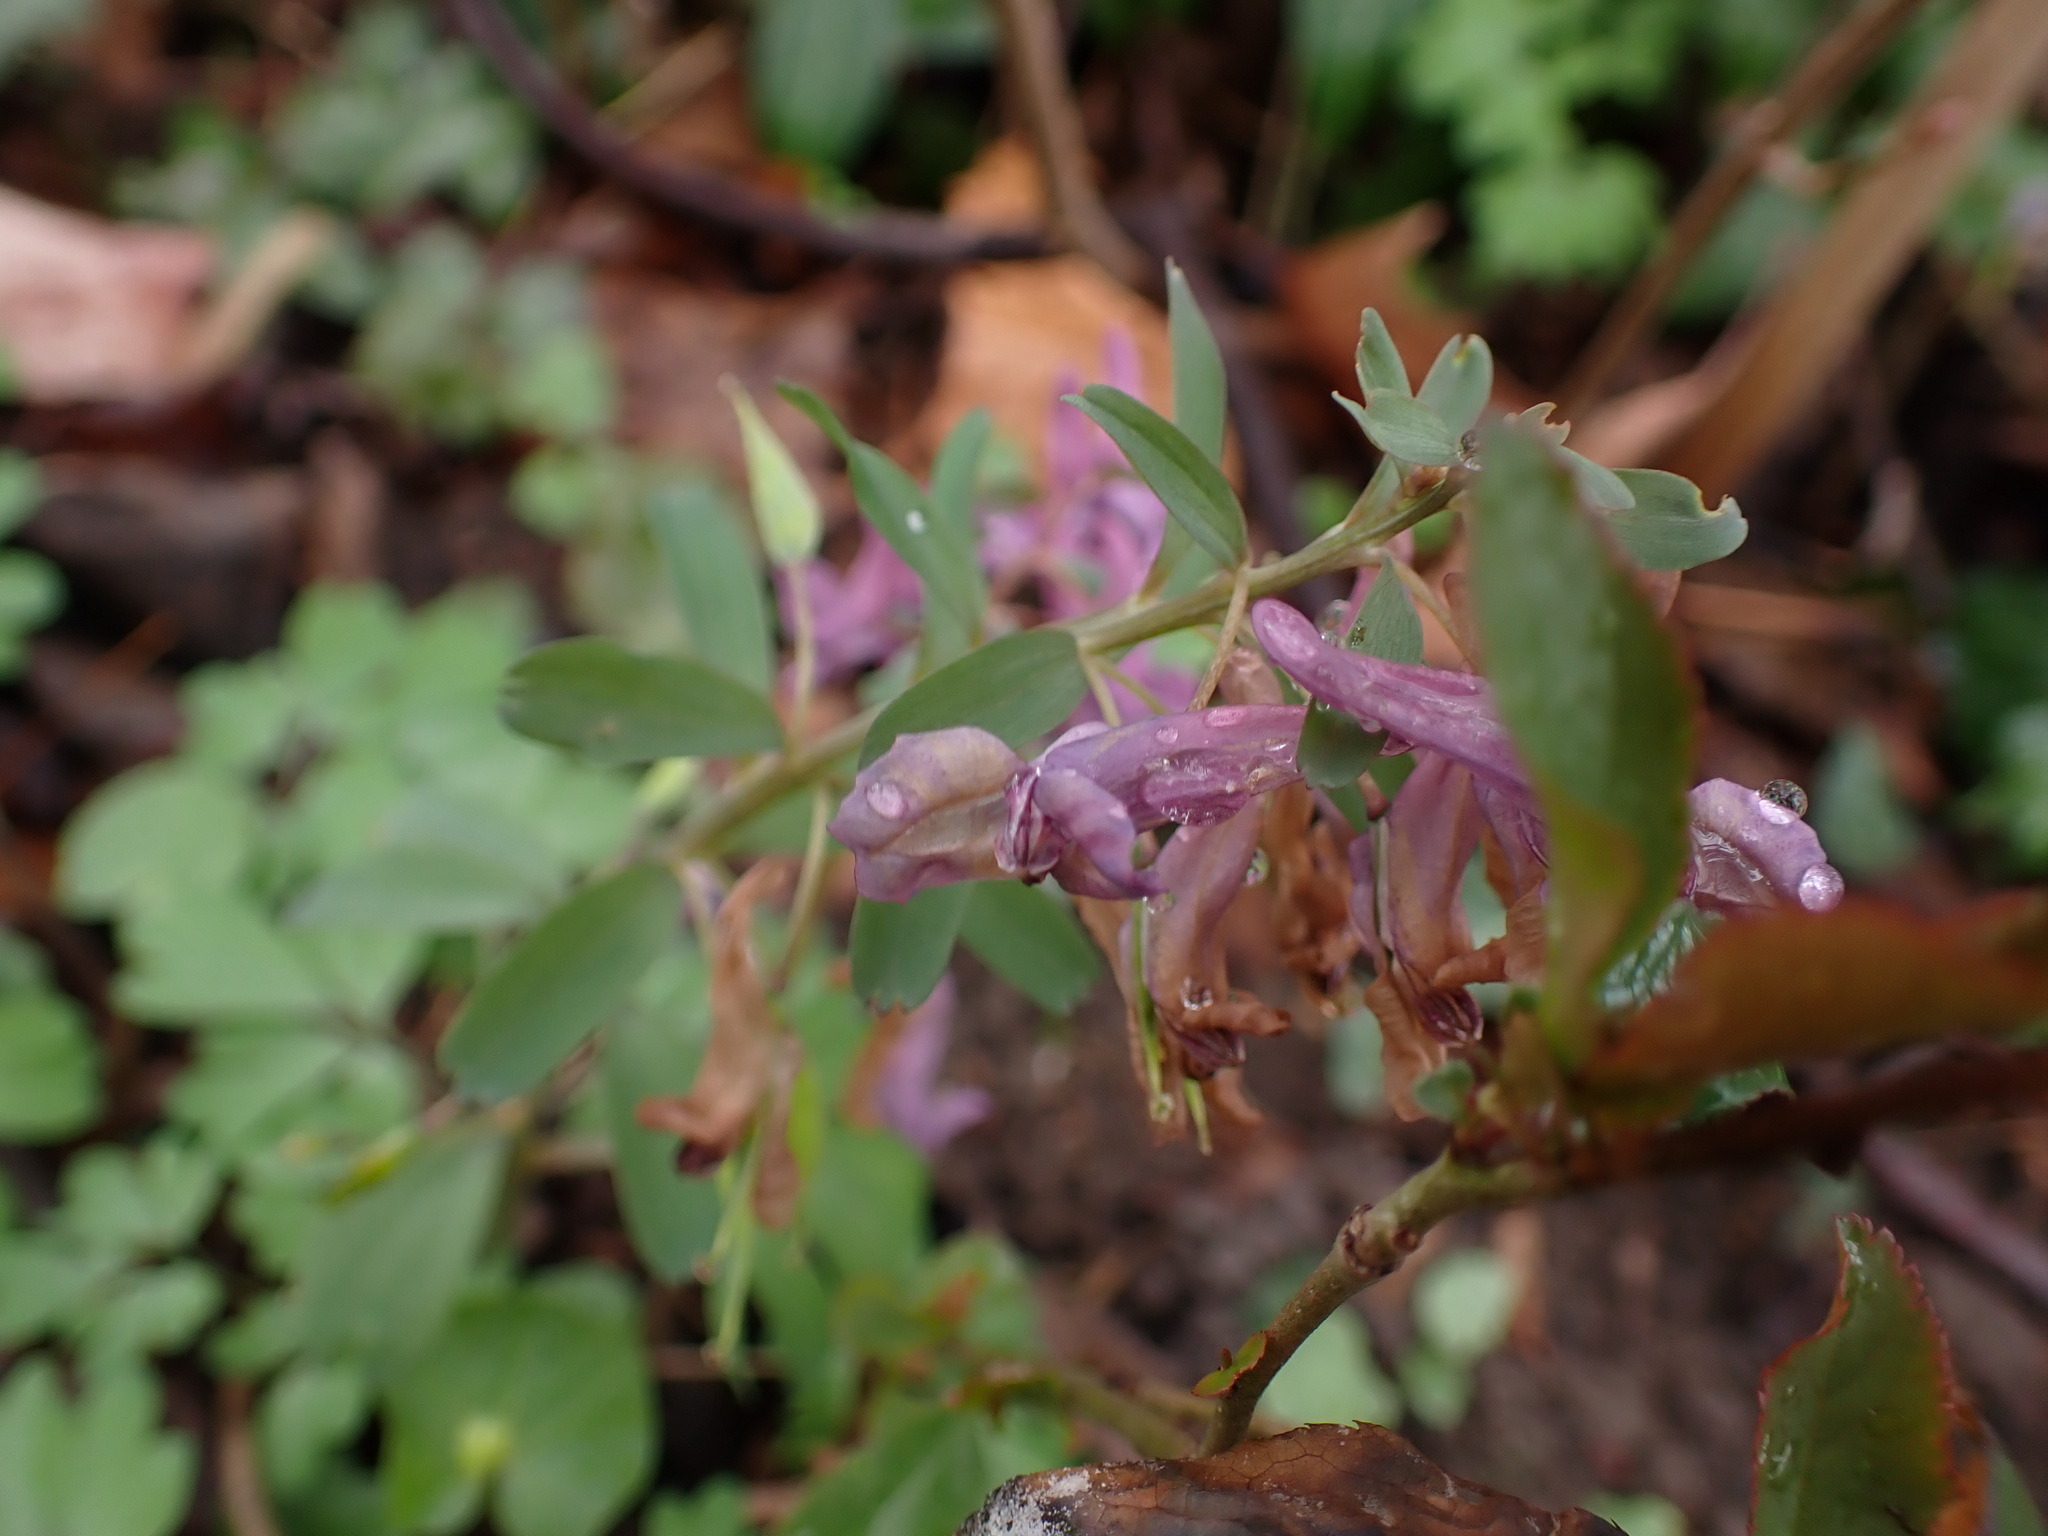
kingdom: Plantae
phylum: Tracheophyta
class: Magnoliopsida
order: Ranunculales
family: Papaveraceae
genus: Corydalis
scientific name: Corydalis hausmannii
